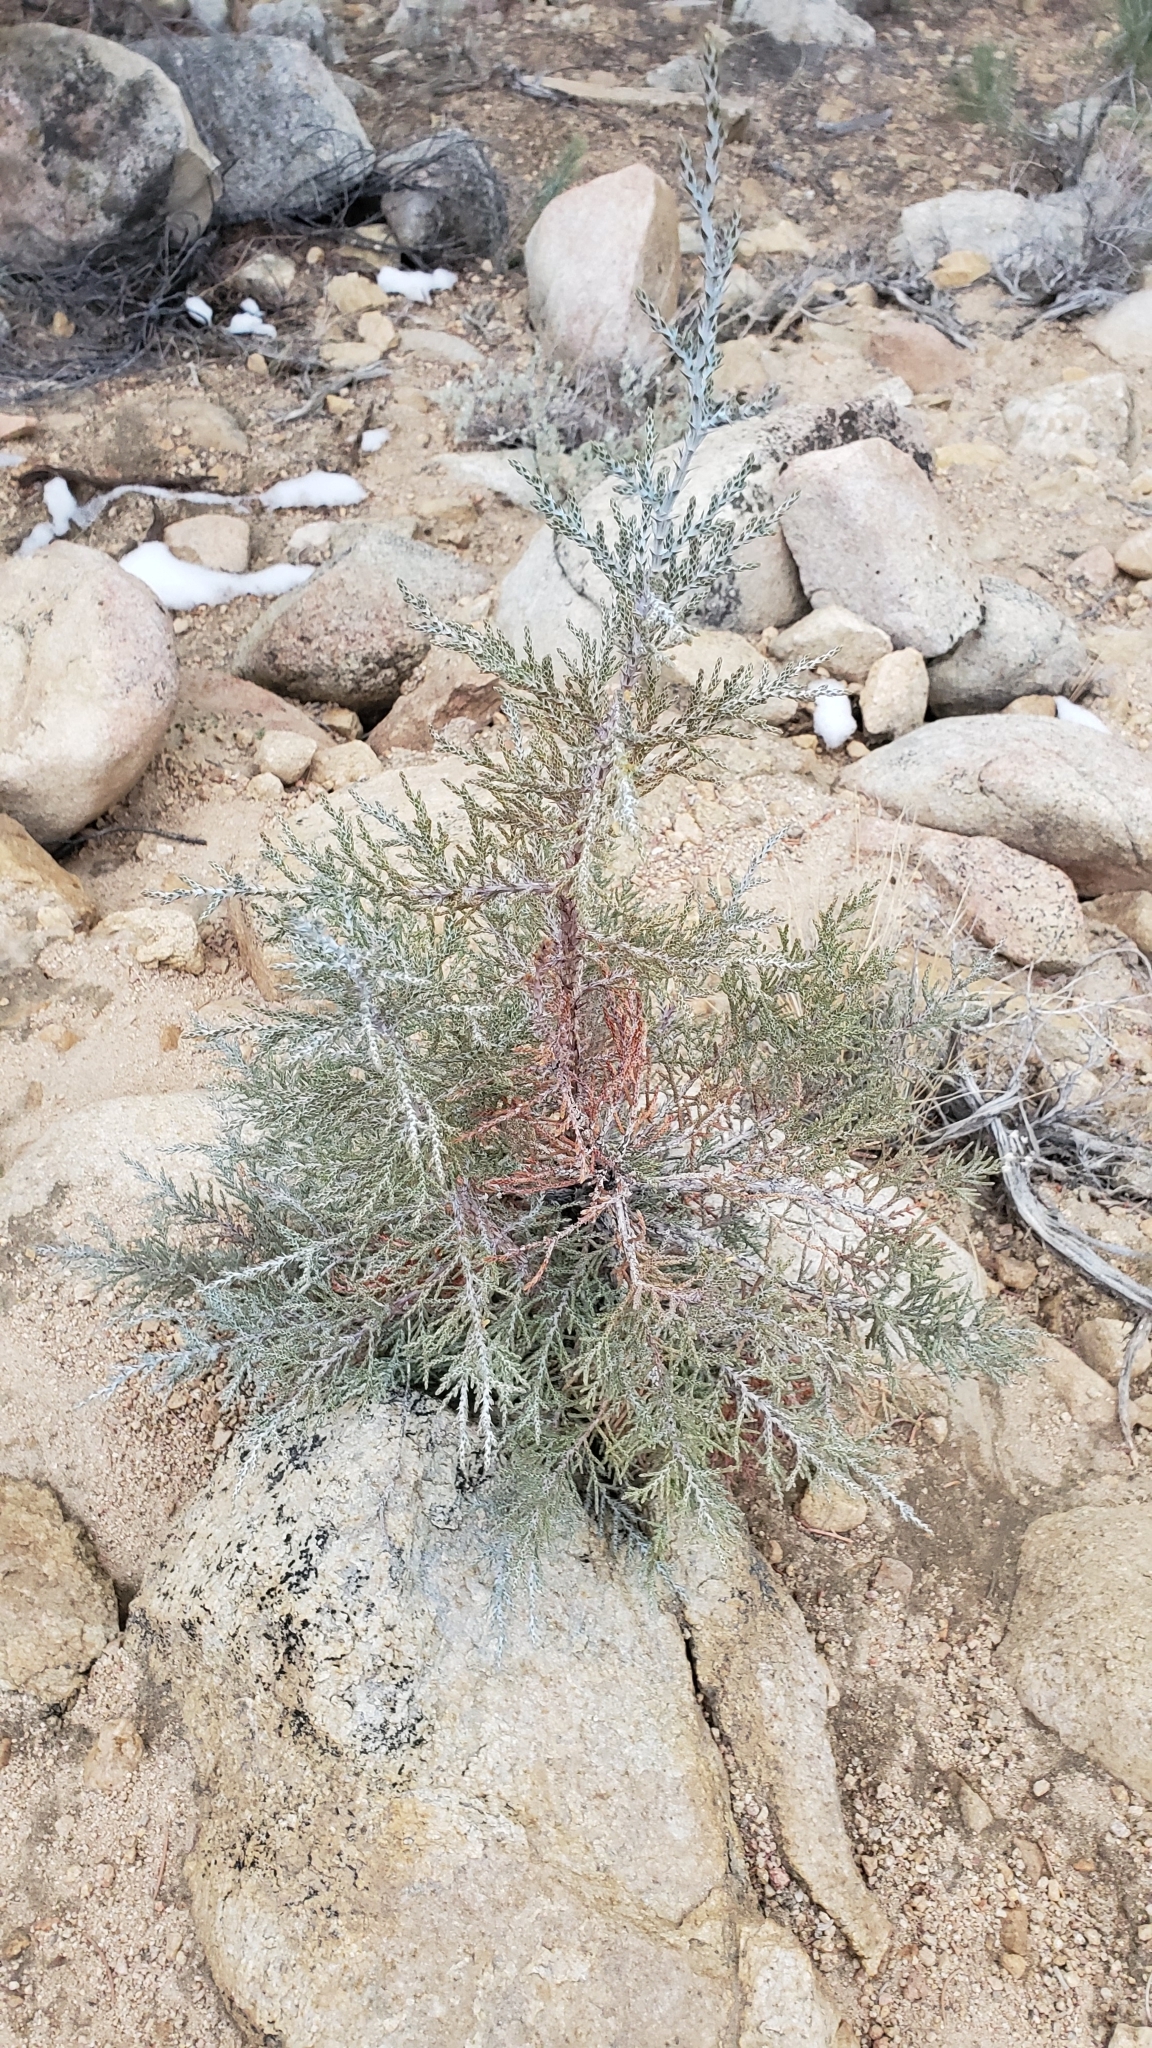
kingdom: Plantae
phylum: Tracheophyta
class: Pinopsida
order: Pinales
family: Cupressaceae
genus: Juniperus
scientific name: Juniperus occidentalis
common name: Western juniper
